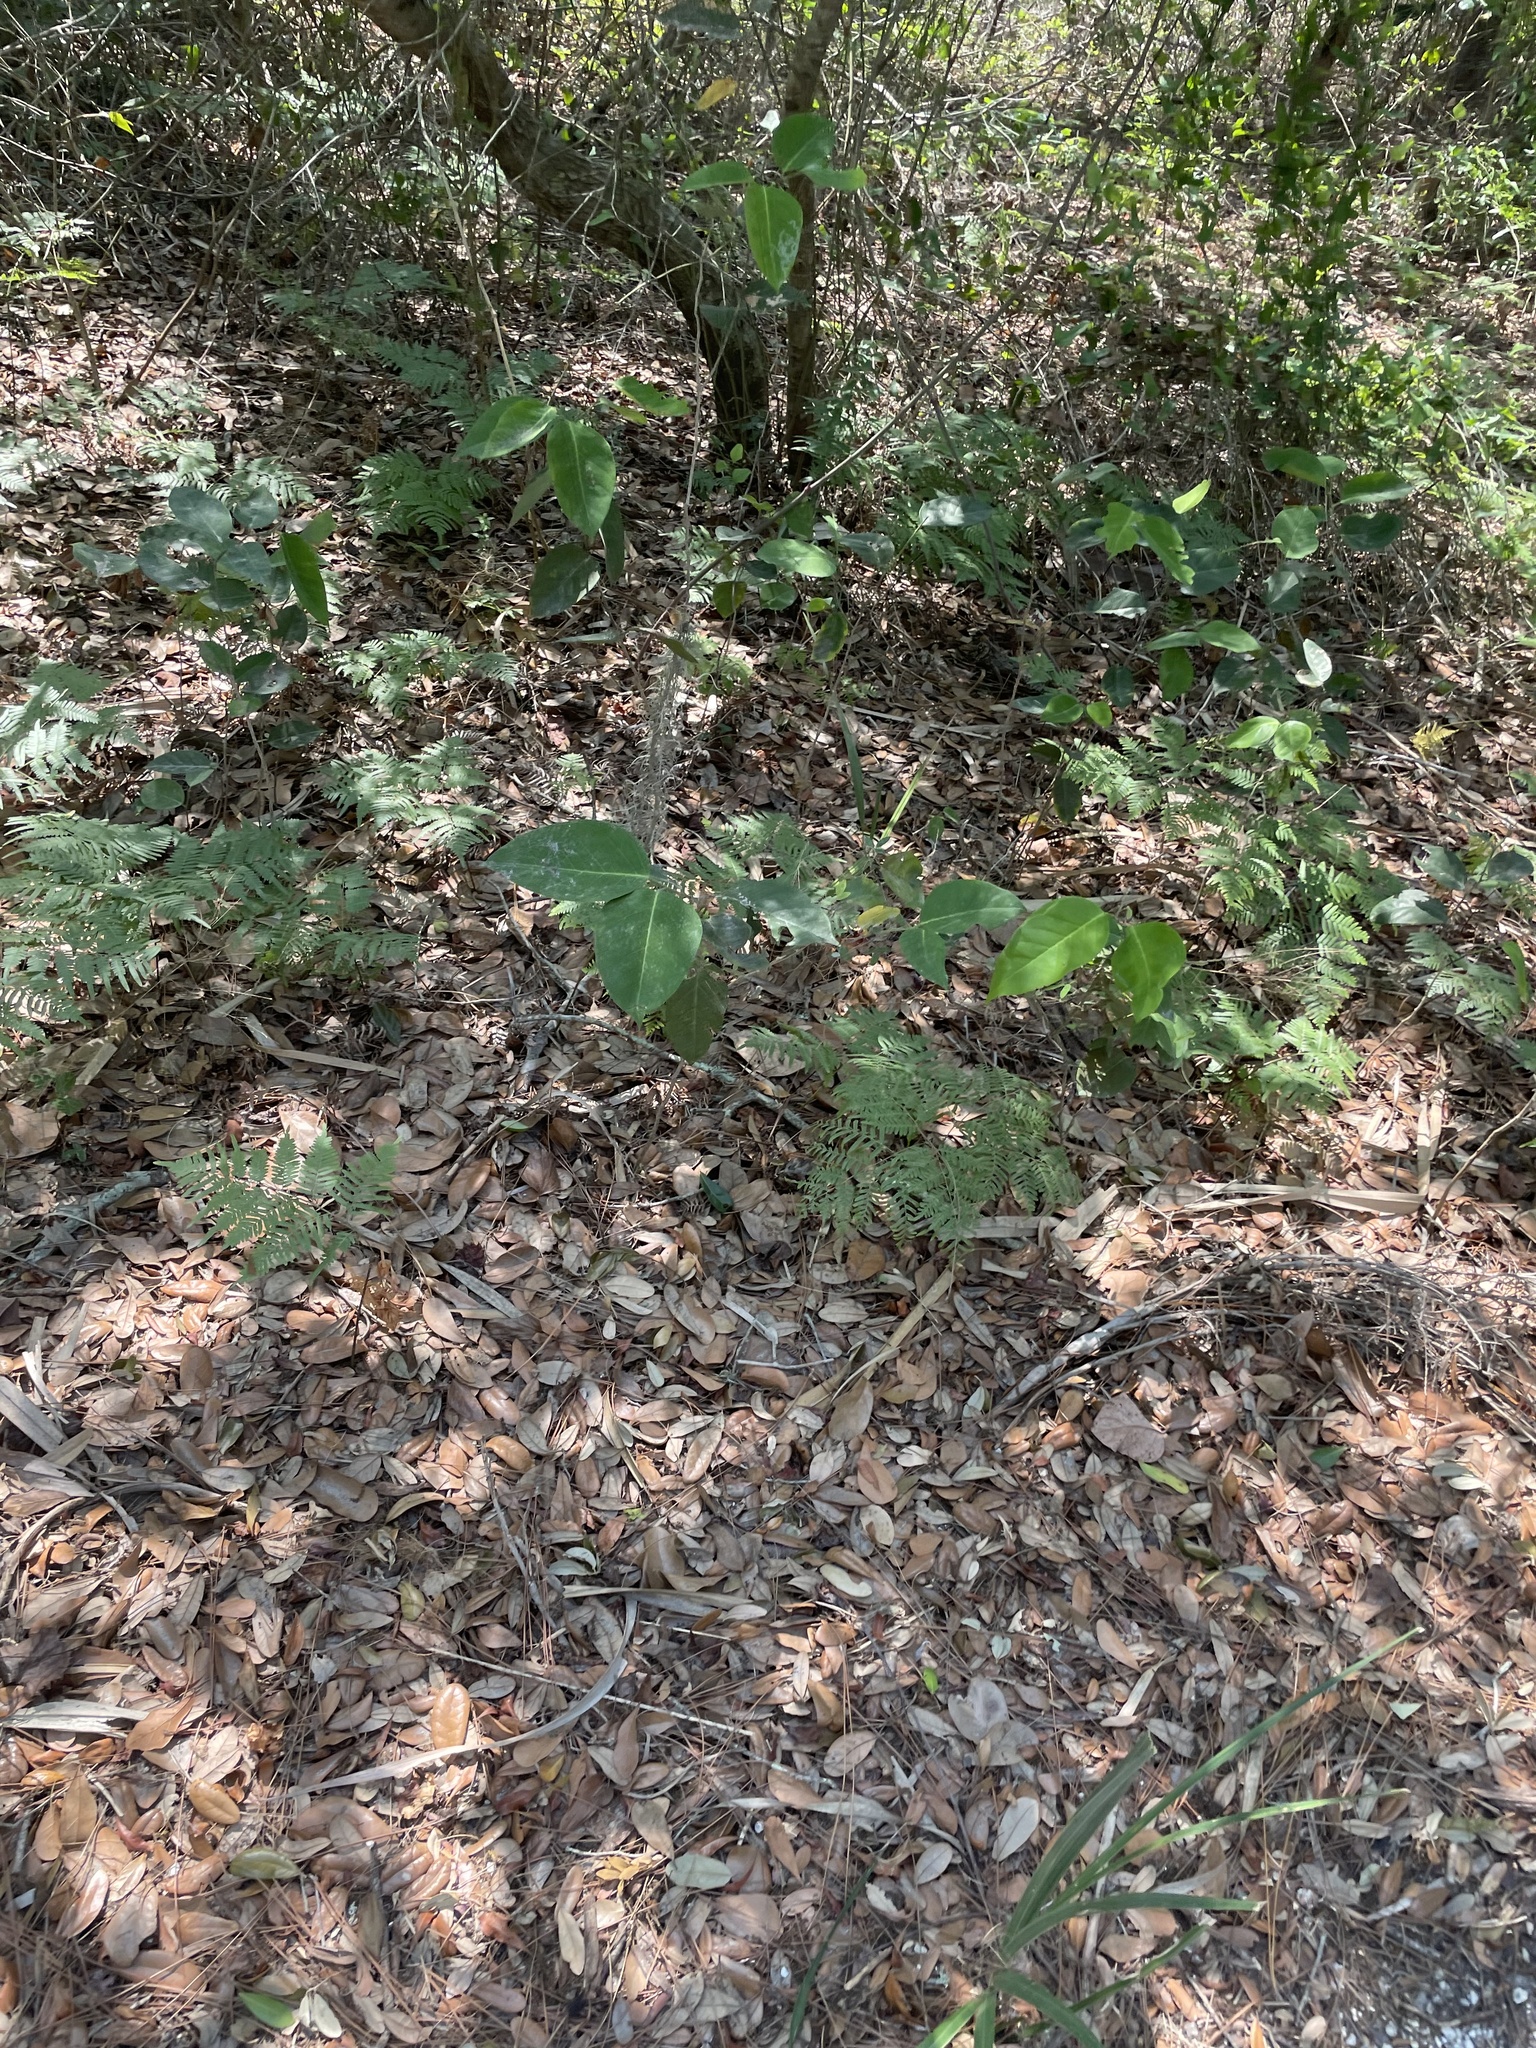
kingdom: Plantae
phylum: Tracheophyta
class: Polypodiopsida
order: Polypodiales
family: Dennstaedtiaceae
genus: Pteridium
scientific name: Pteridium
